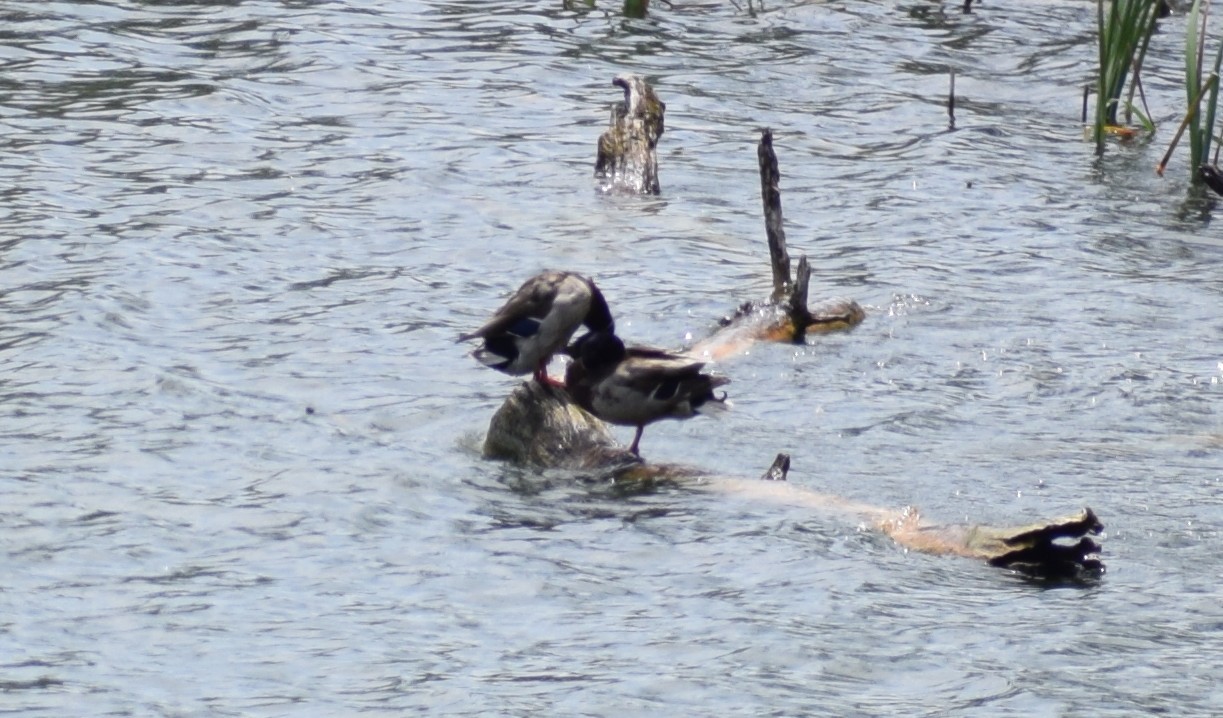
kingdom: Animalia
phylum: Chordata
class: Aves
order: Anseriformes
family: Anatidae
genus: Anas
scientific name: Anas platyrhynchos
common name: Mallard
